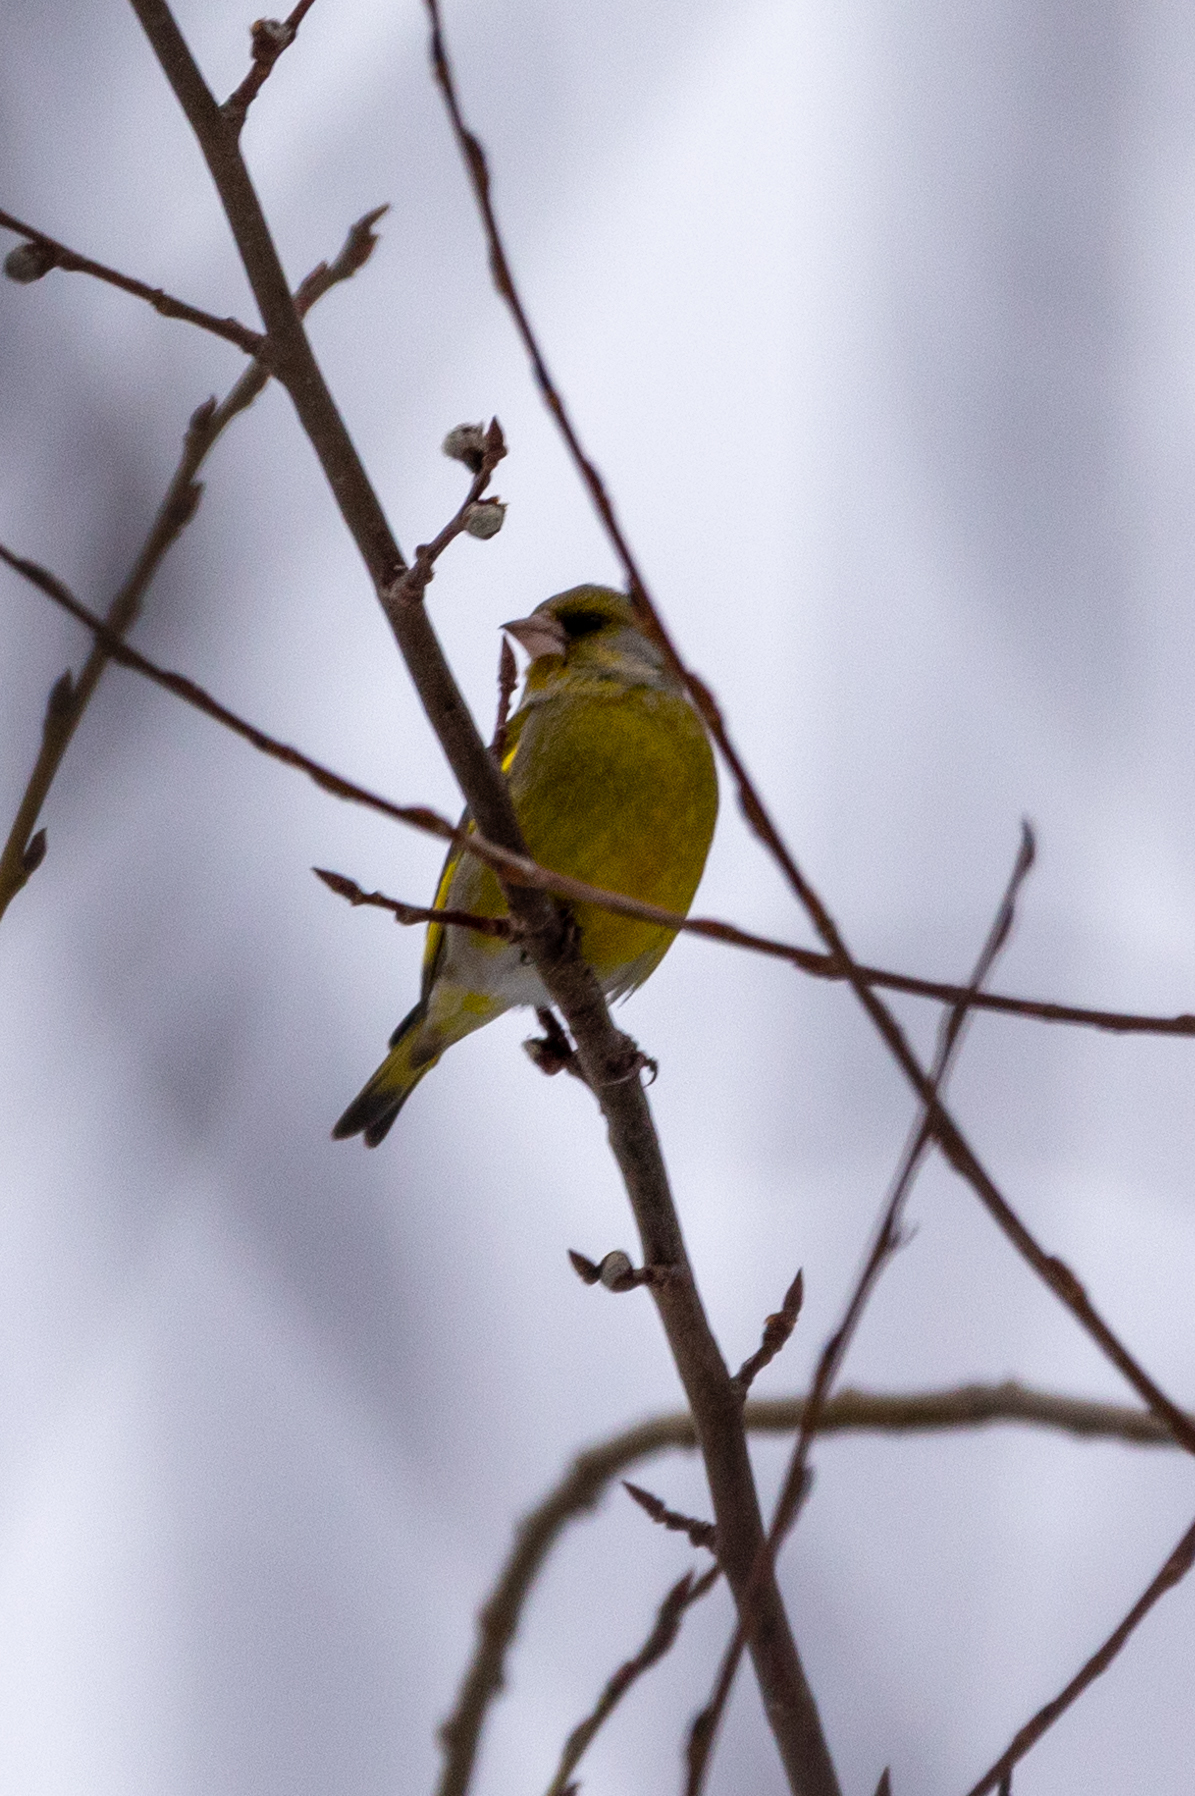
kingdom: Plantae
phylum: Tracheophyta
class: Liliopsida
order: Poales
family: Poaceae
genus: Chloris
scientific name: Chloris chloris
